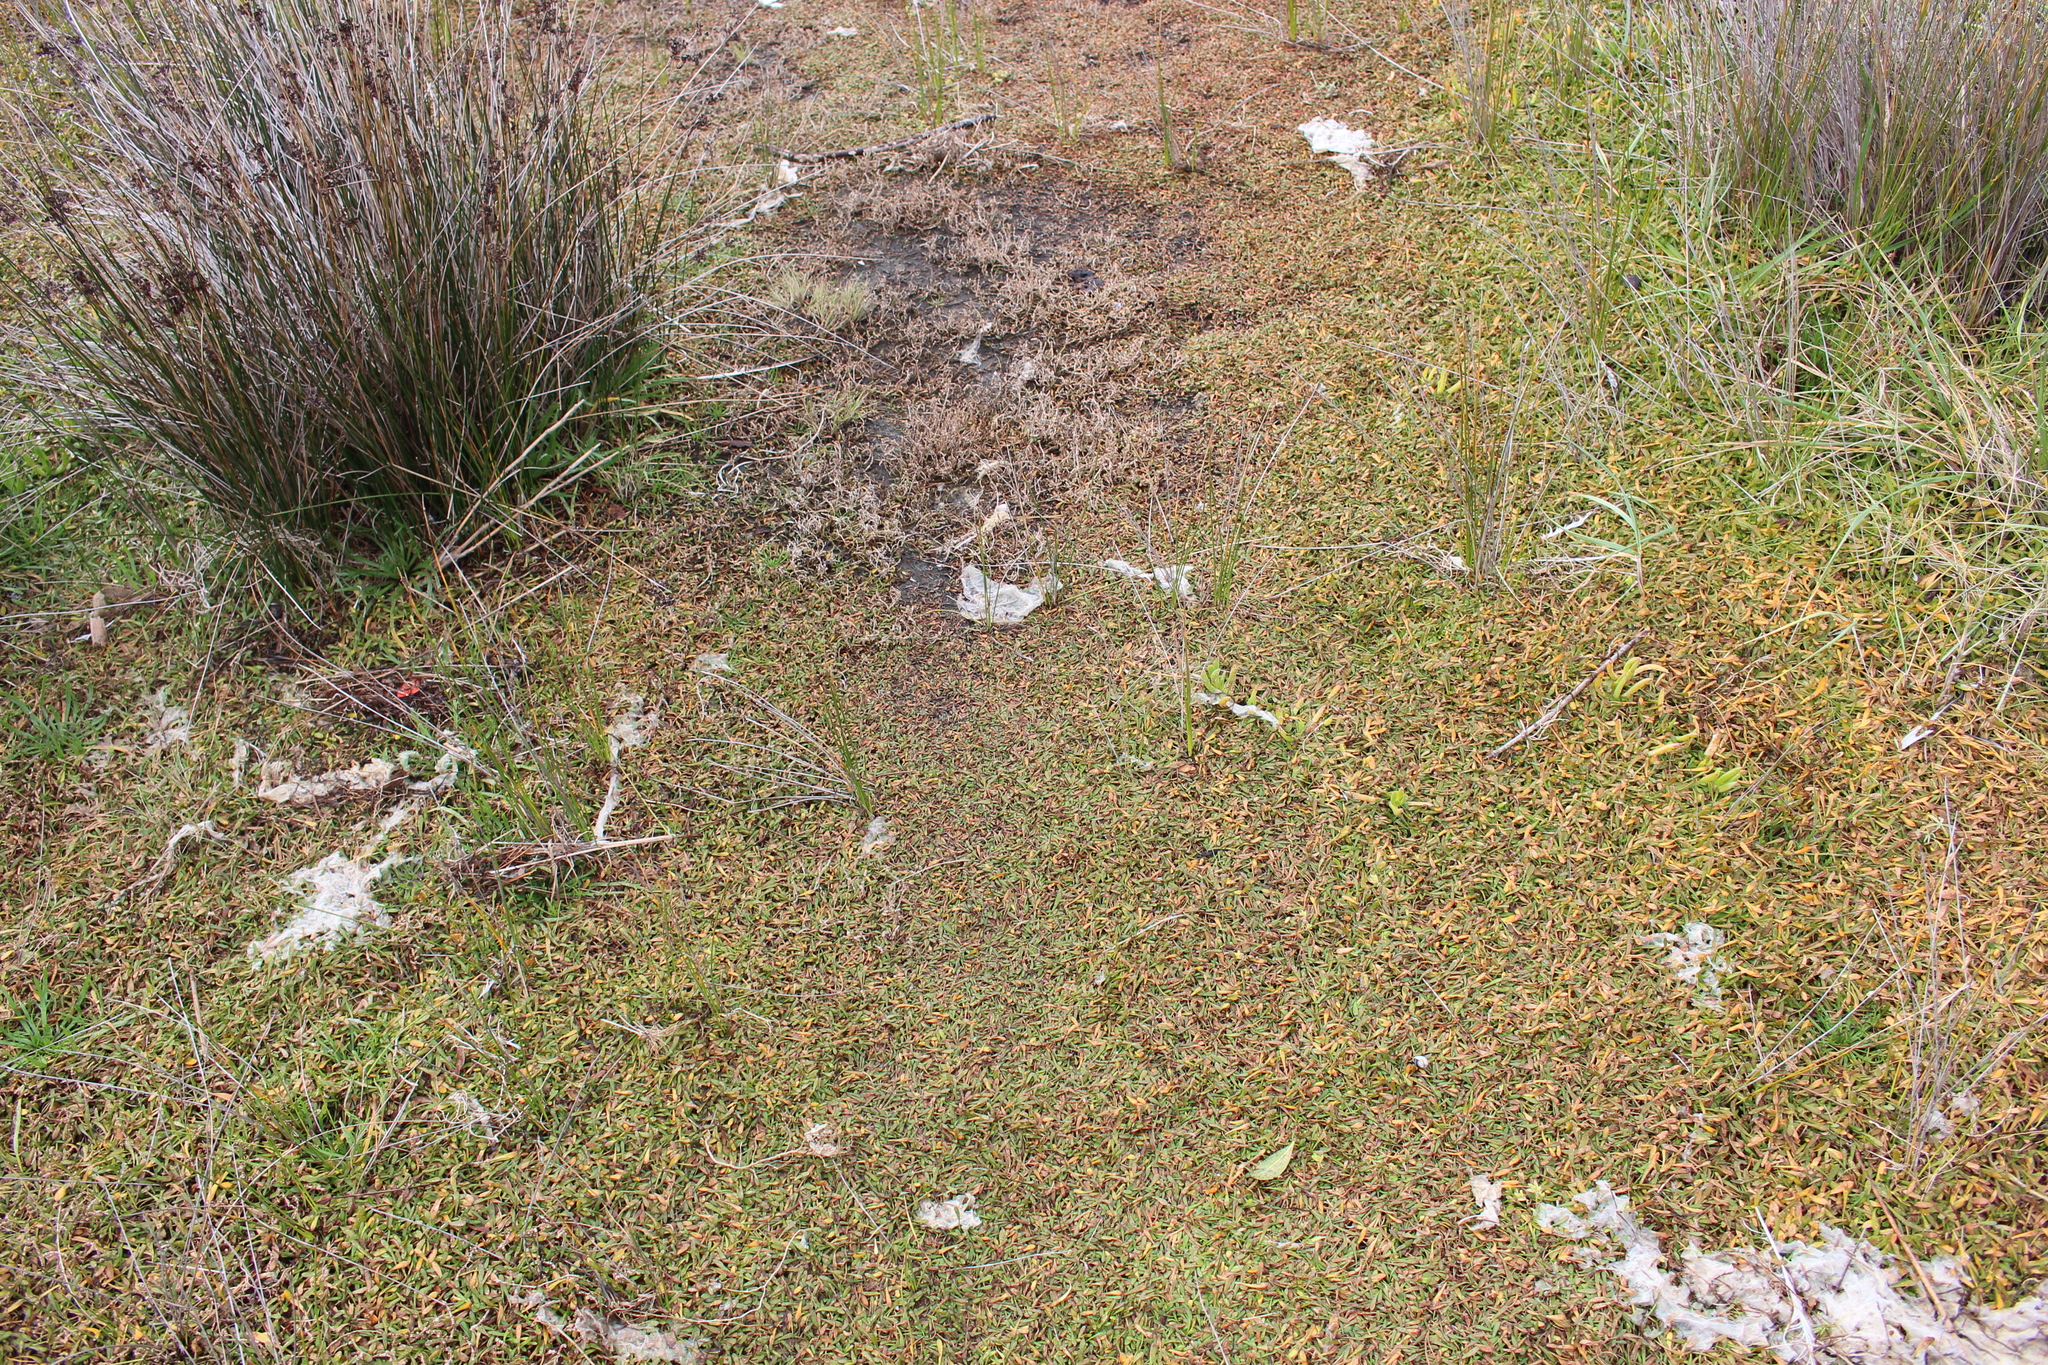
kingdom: Plantae
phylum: Tracheophyta
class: Magnoliopsida
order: Asterales
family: Goodeniaceae
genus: Goodenia
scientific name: Goodenia radicans
